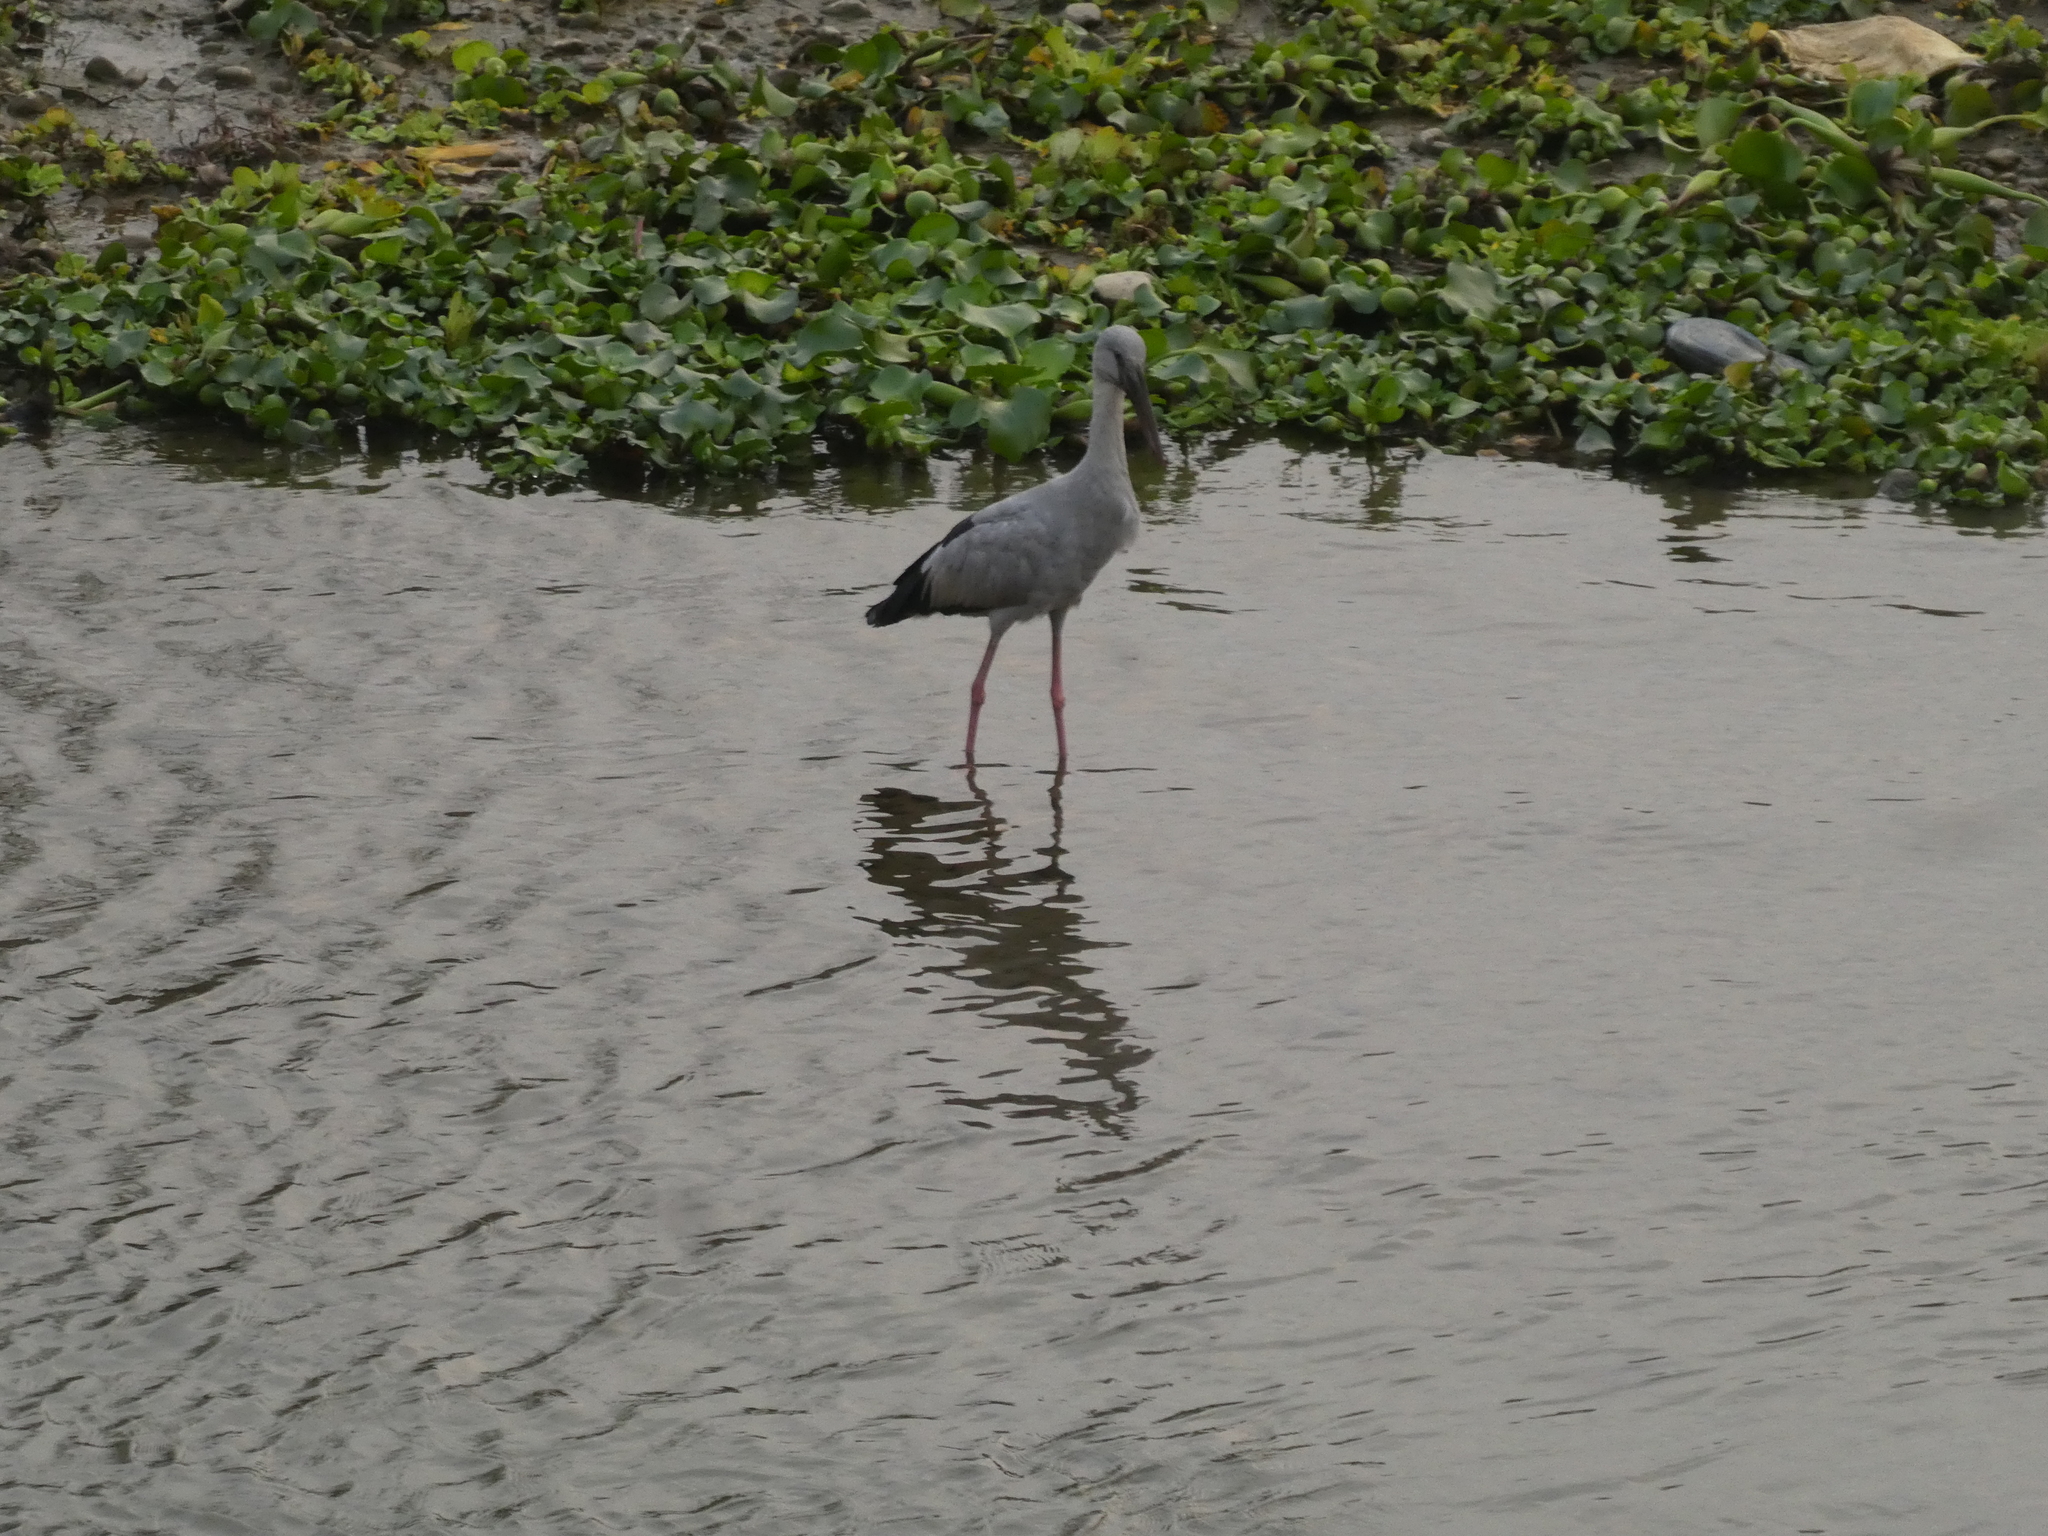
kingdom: Animalia
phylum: Chordata
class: Aves
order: Ciconiiformes
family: Ciconiidae
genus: Anastomus
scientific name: Anastomus oscitans
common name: Asian openbill
